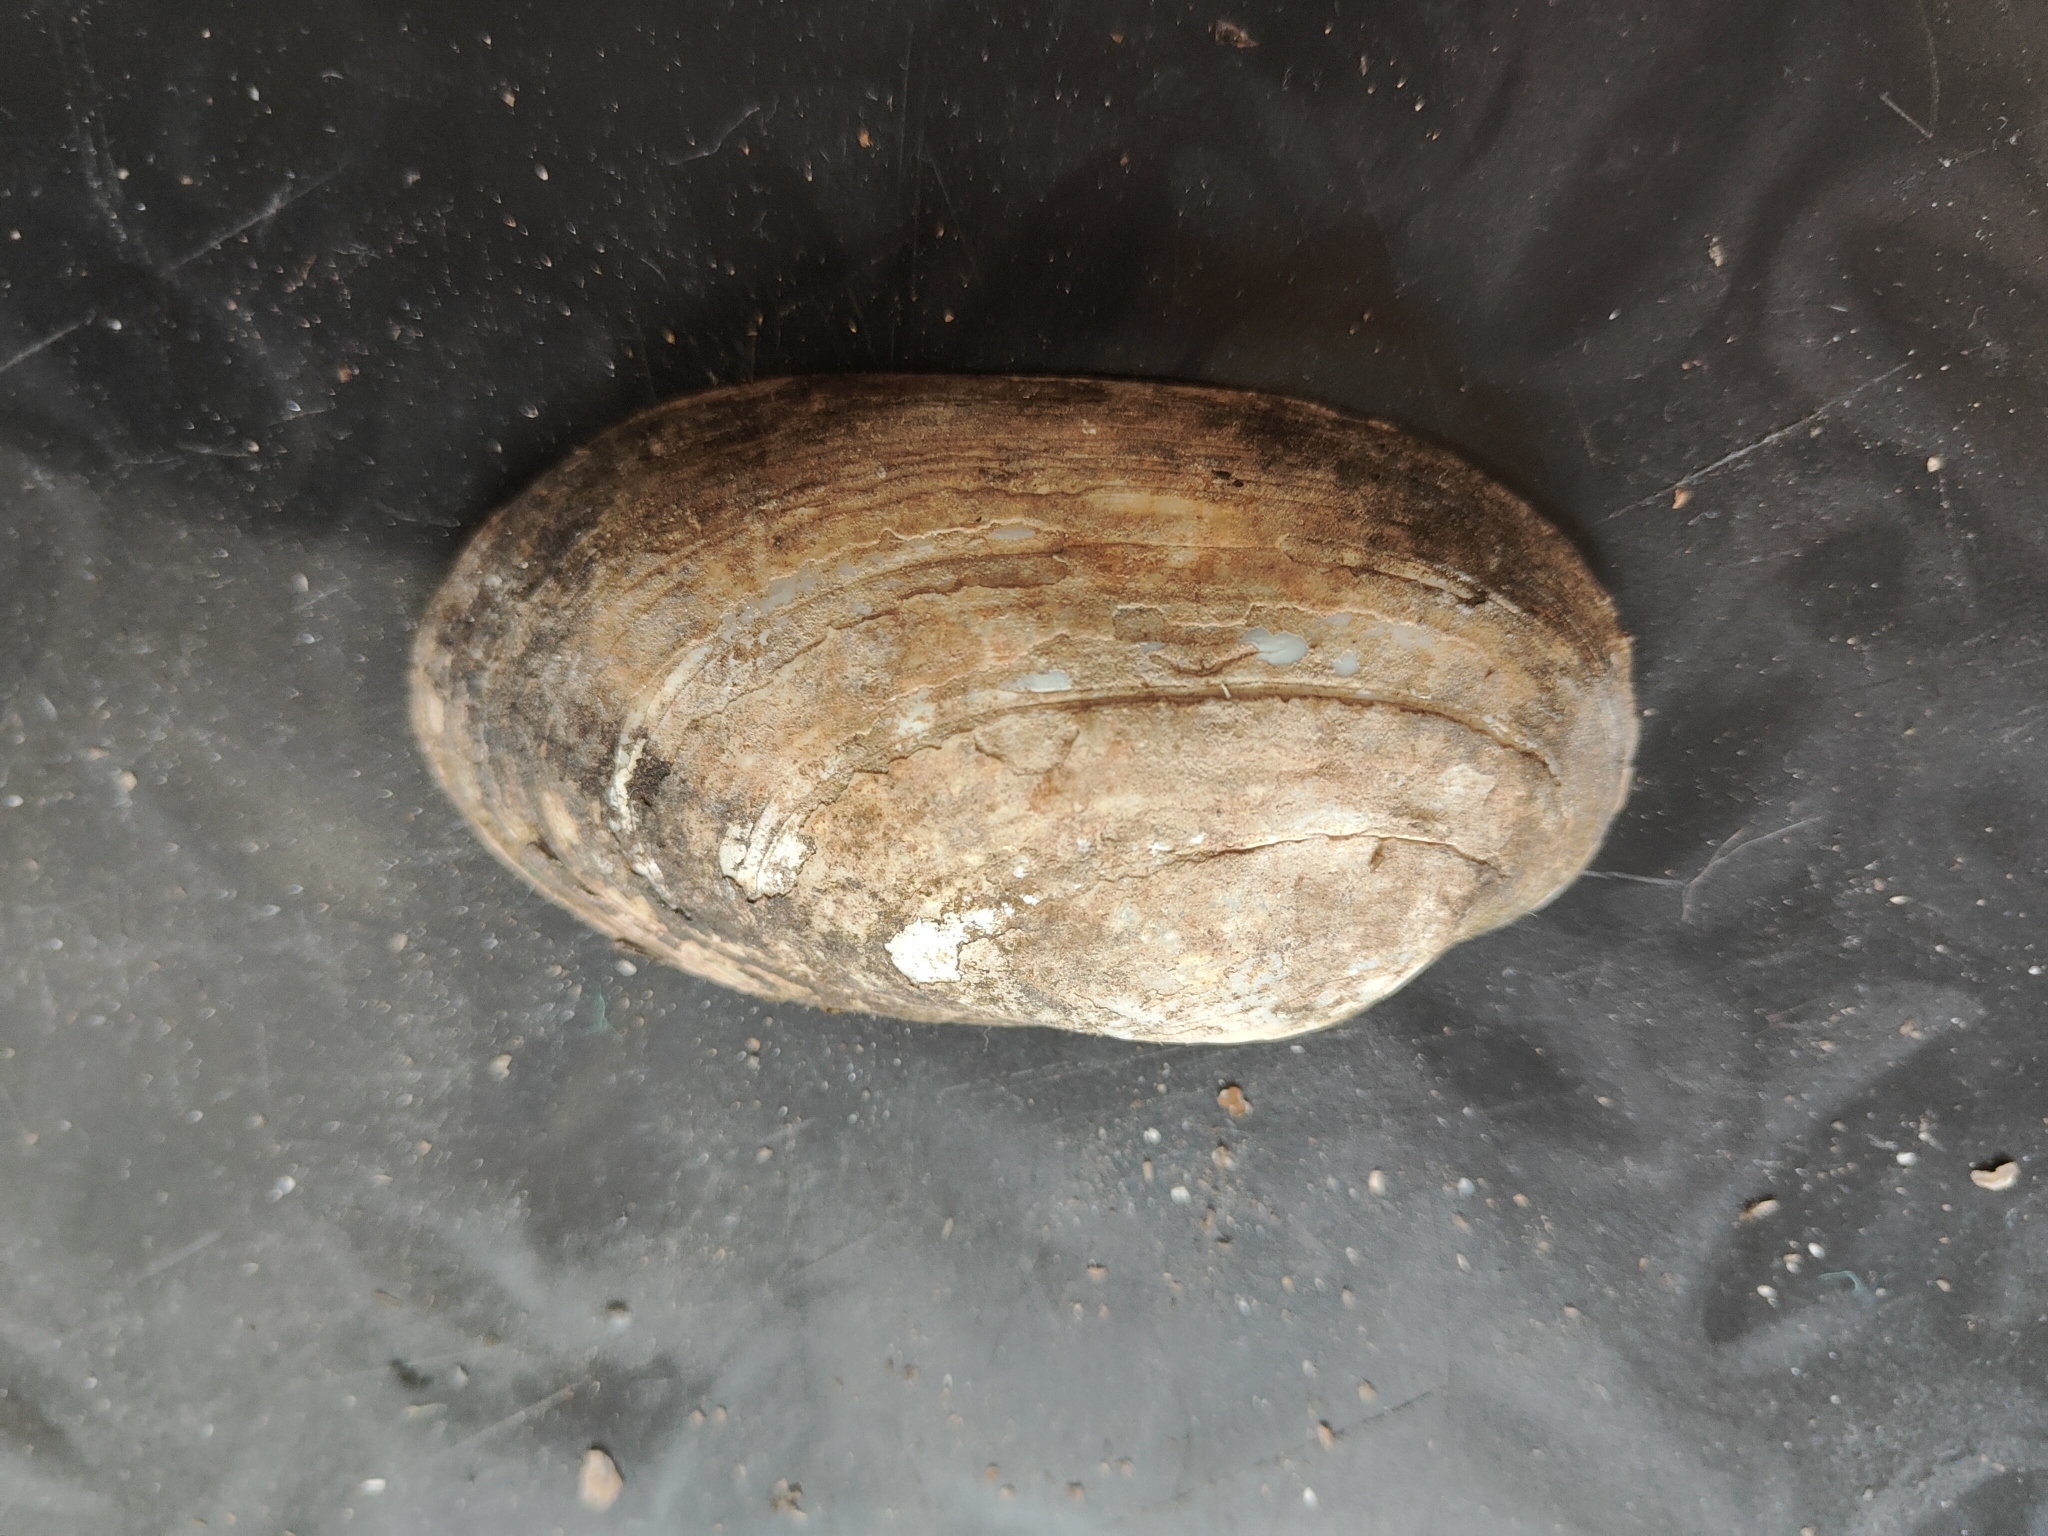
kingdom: Animalia
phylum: Mollusca
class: Bivalvia
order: Unionida
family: Unionidae
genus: Lampsilis
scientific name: Lampsilis siliquoidea
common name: Fatmucket
